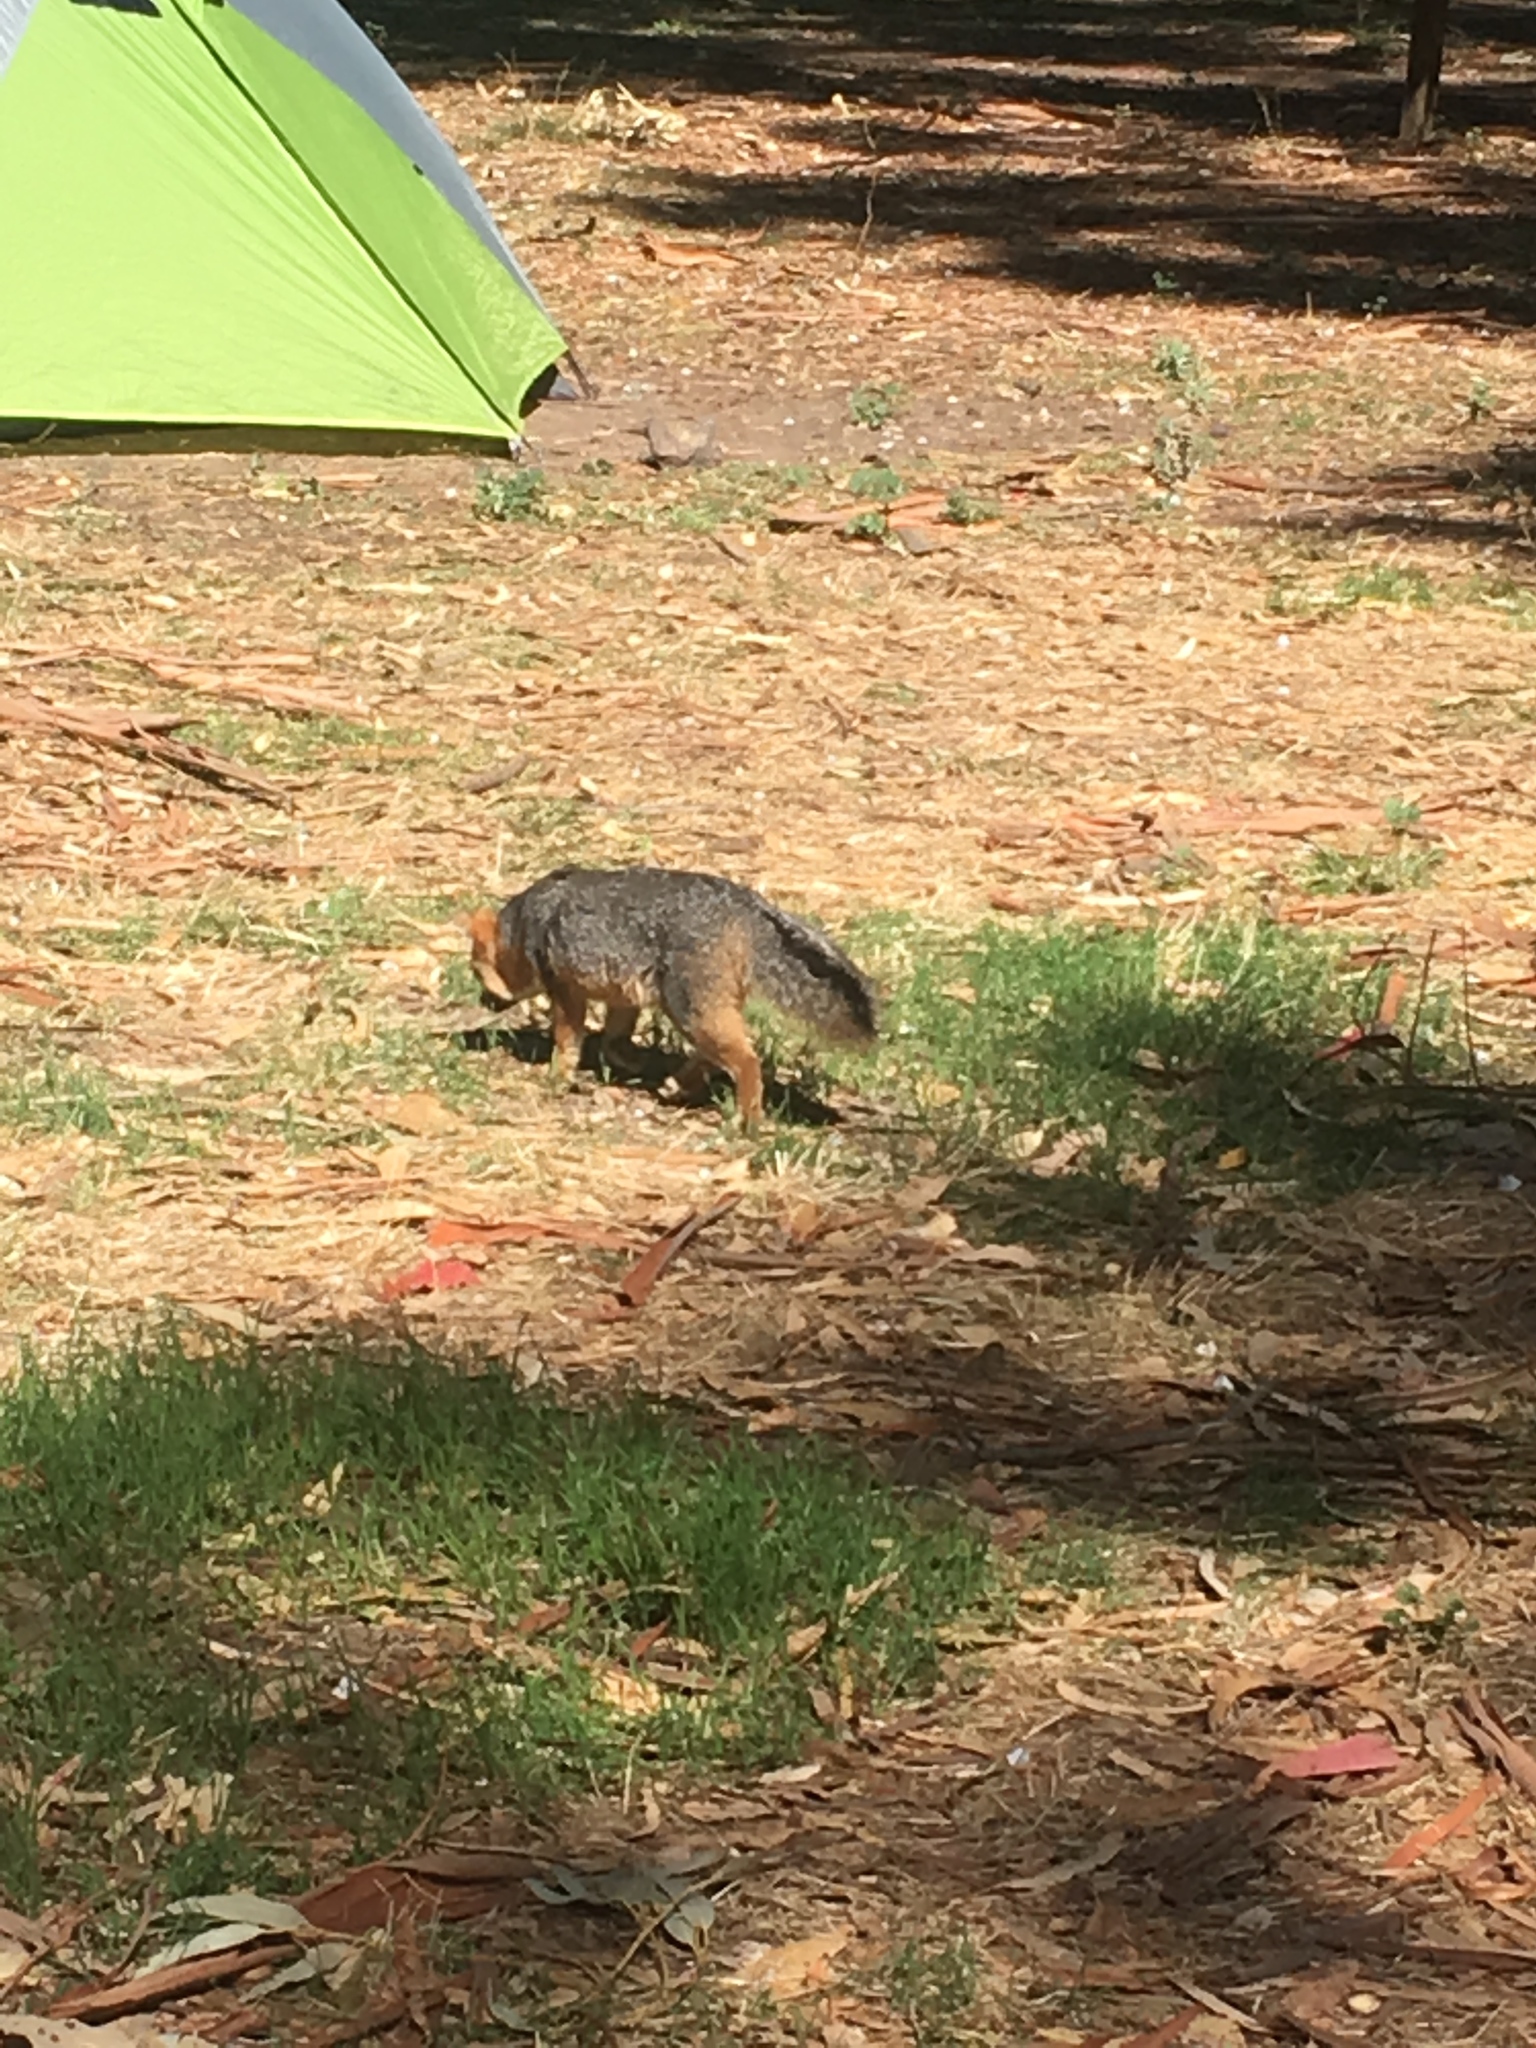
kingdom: Animalia
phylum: Chordata
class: Mammalia
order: Carnivora
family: Canidae
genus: Urocyon
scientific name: Urocyon littoralis
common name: Island gray fox
